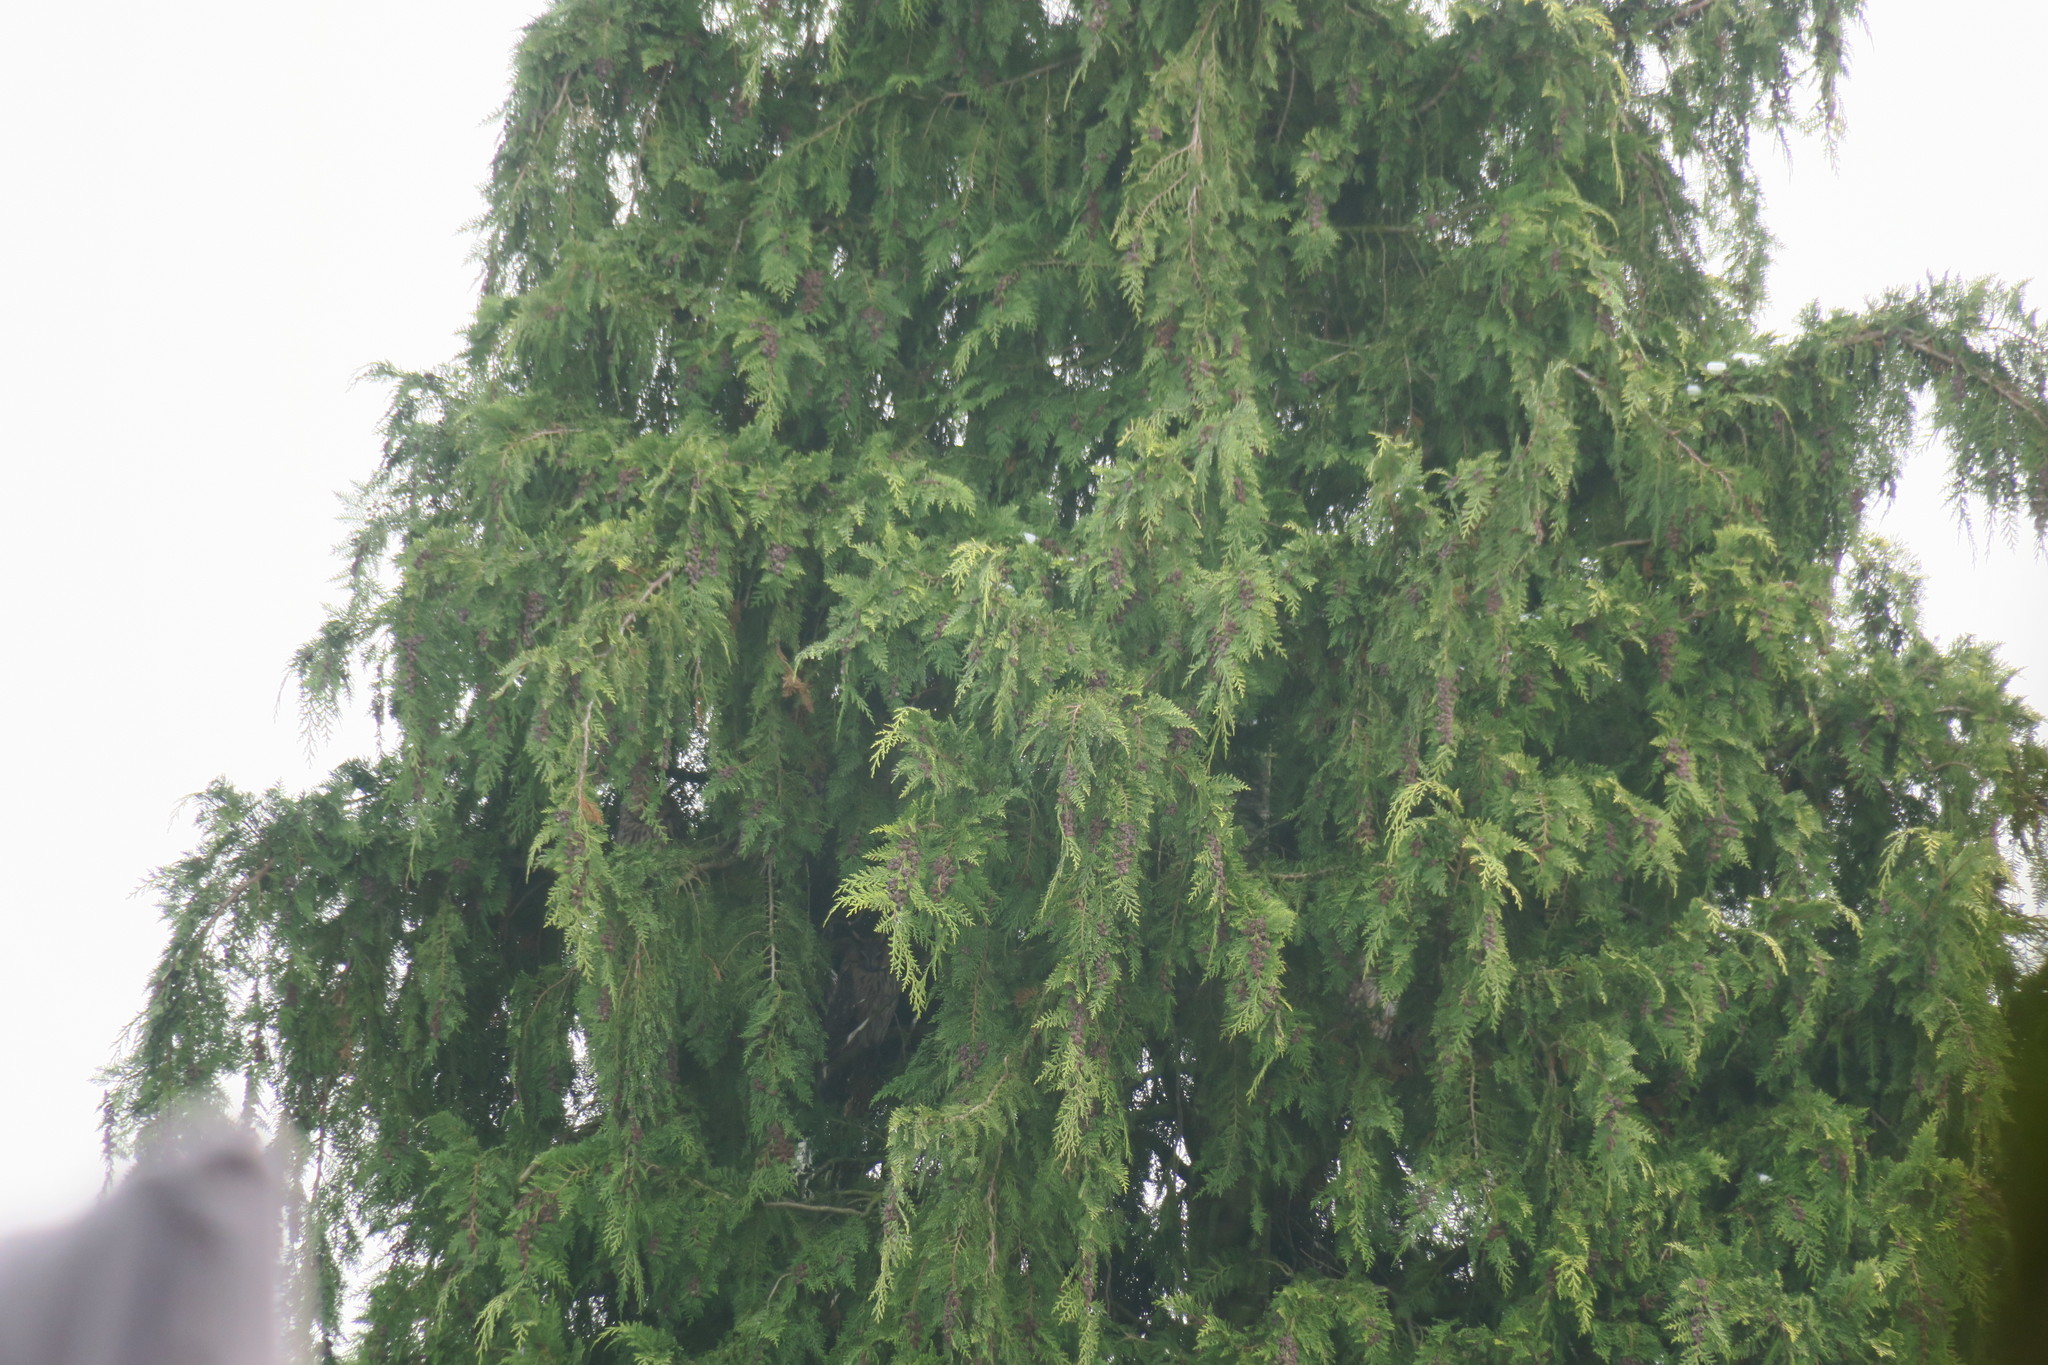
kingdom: Animalia
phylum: Chordata
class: Aves
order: Strigiformes
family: Strigidae
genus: Asio
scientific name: Asio otus
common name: Long-eared owl
